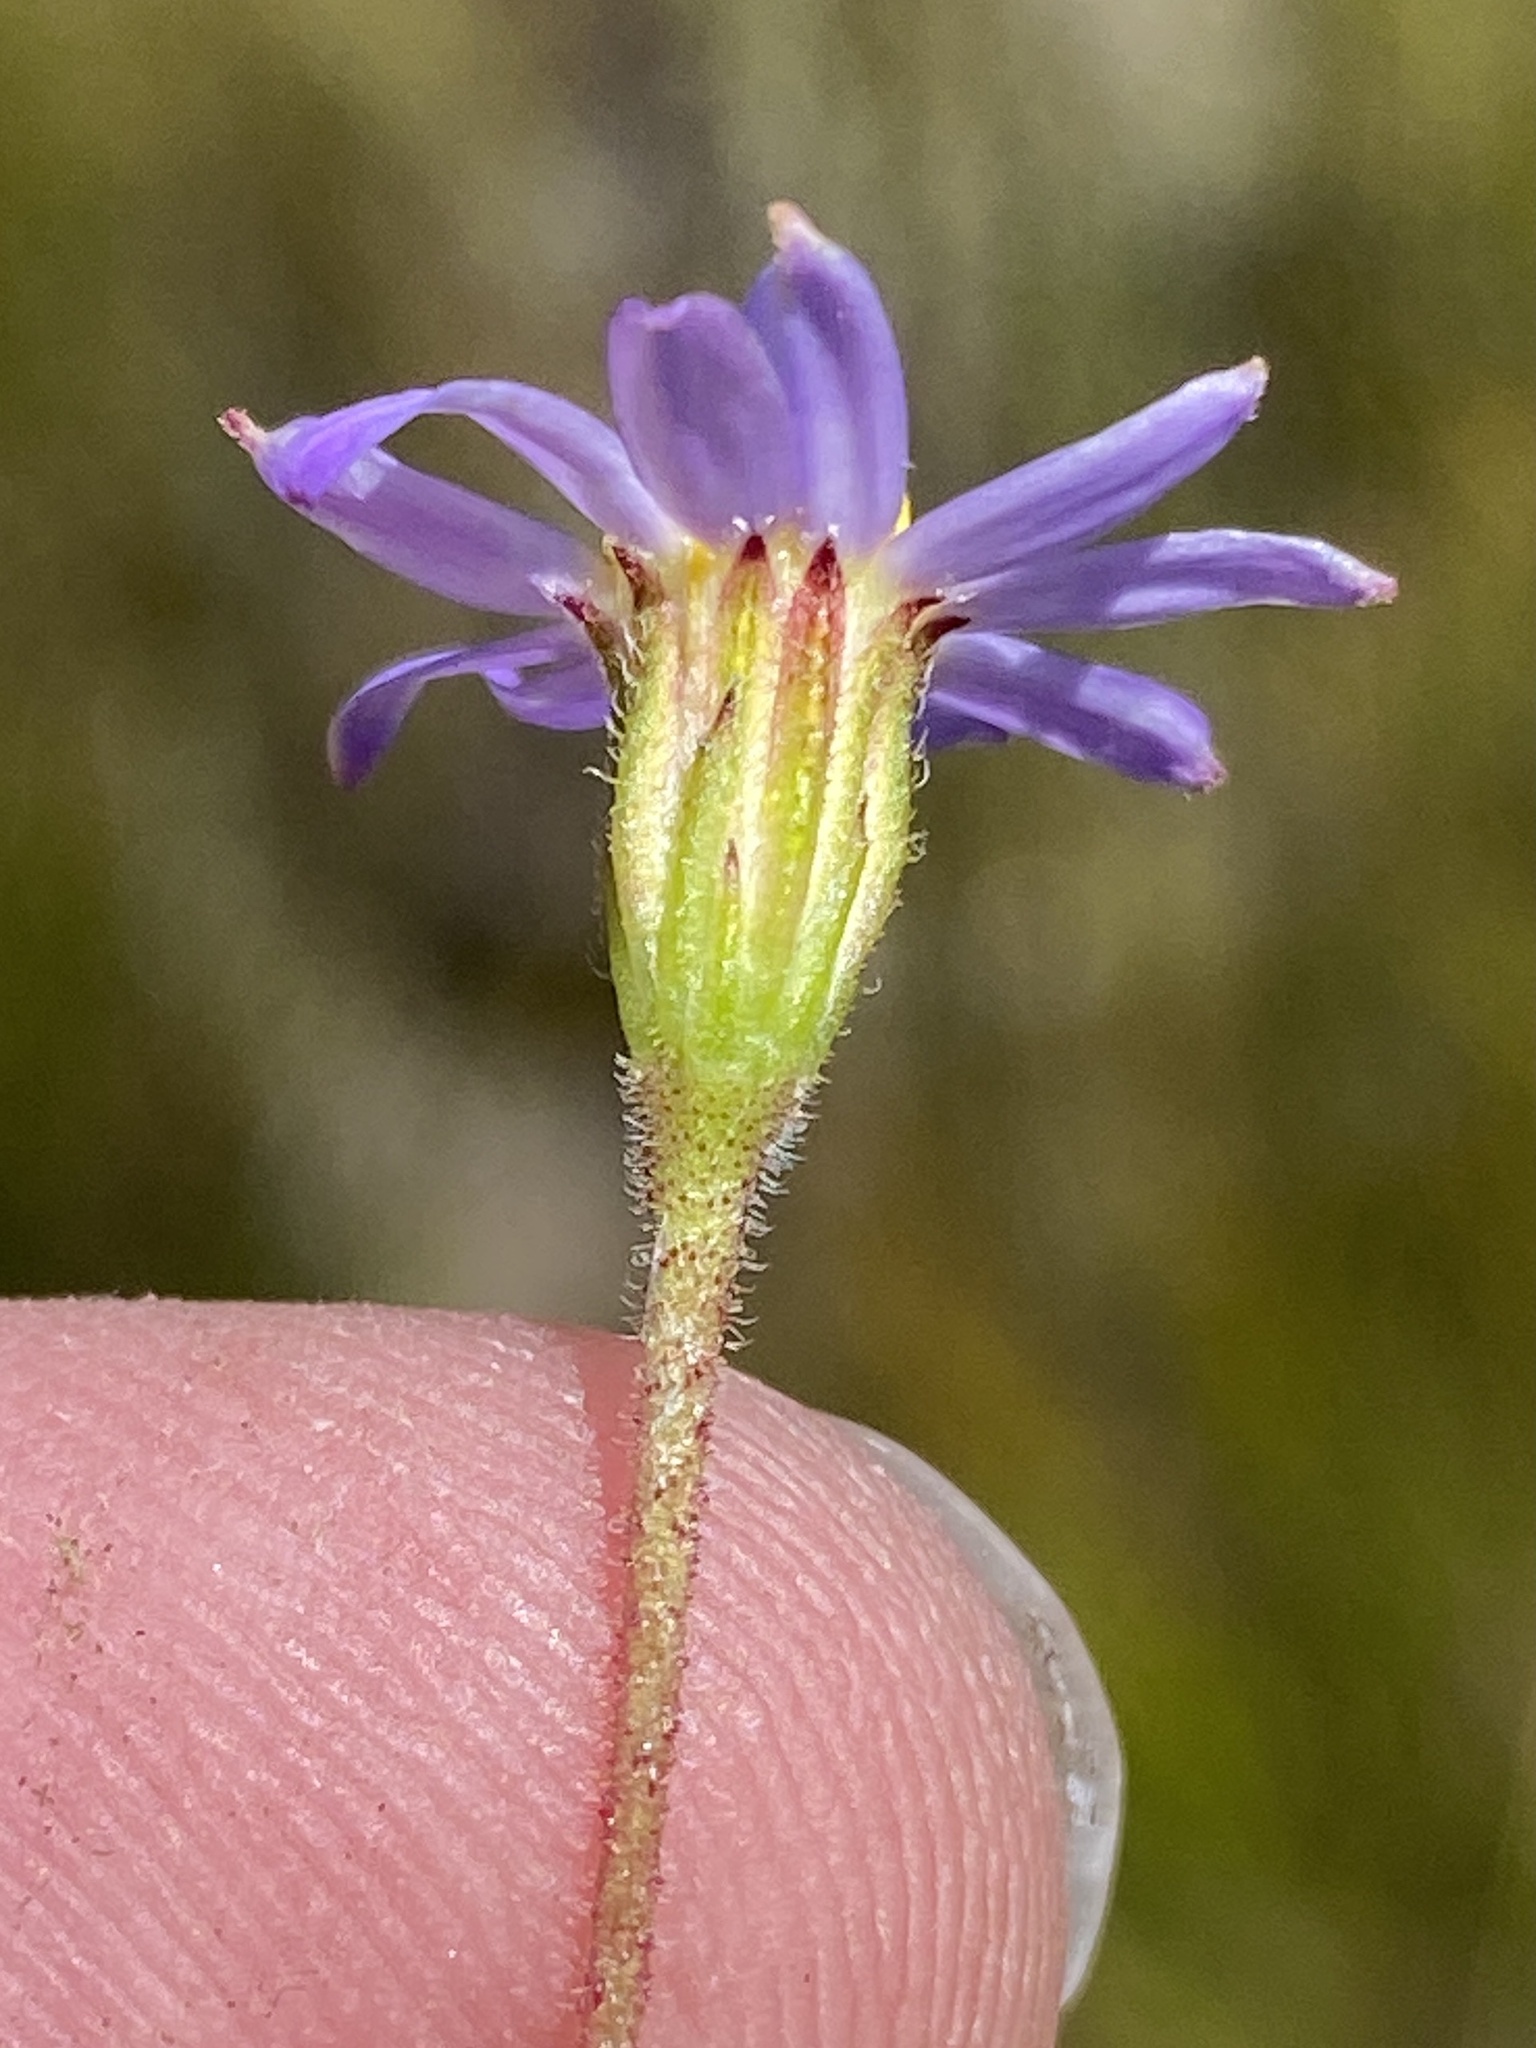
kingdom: Plantae
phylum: Tracheophyta
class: Magnoliopsida
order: Asterales
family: Asteraceae
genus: Zyrphelis
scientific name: Zyrphelis
